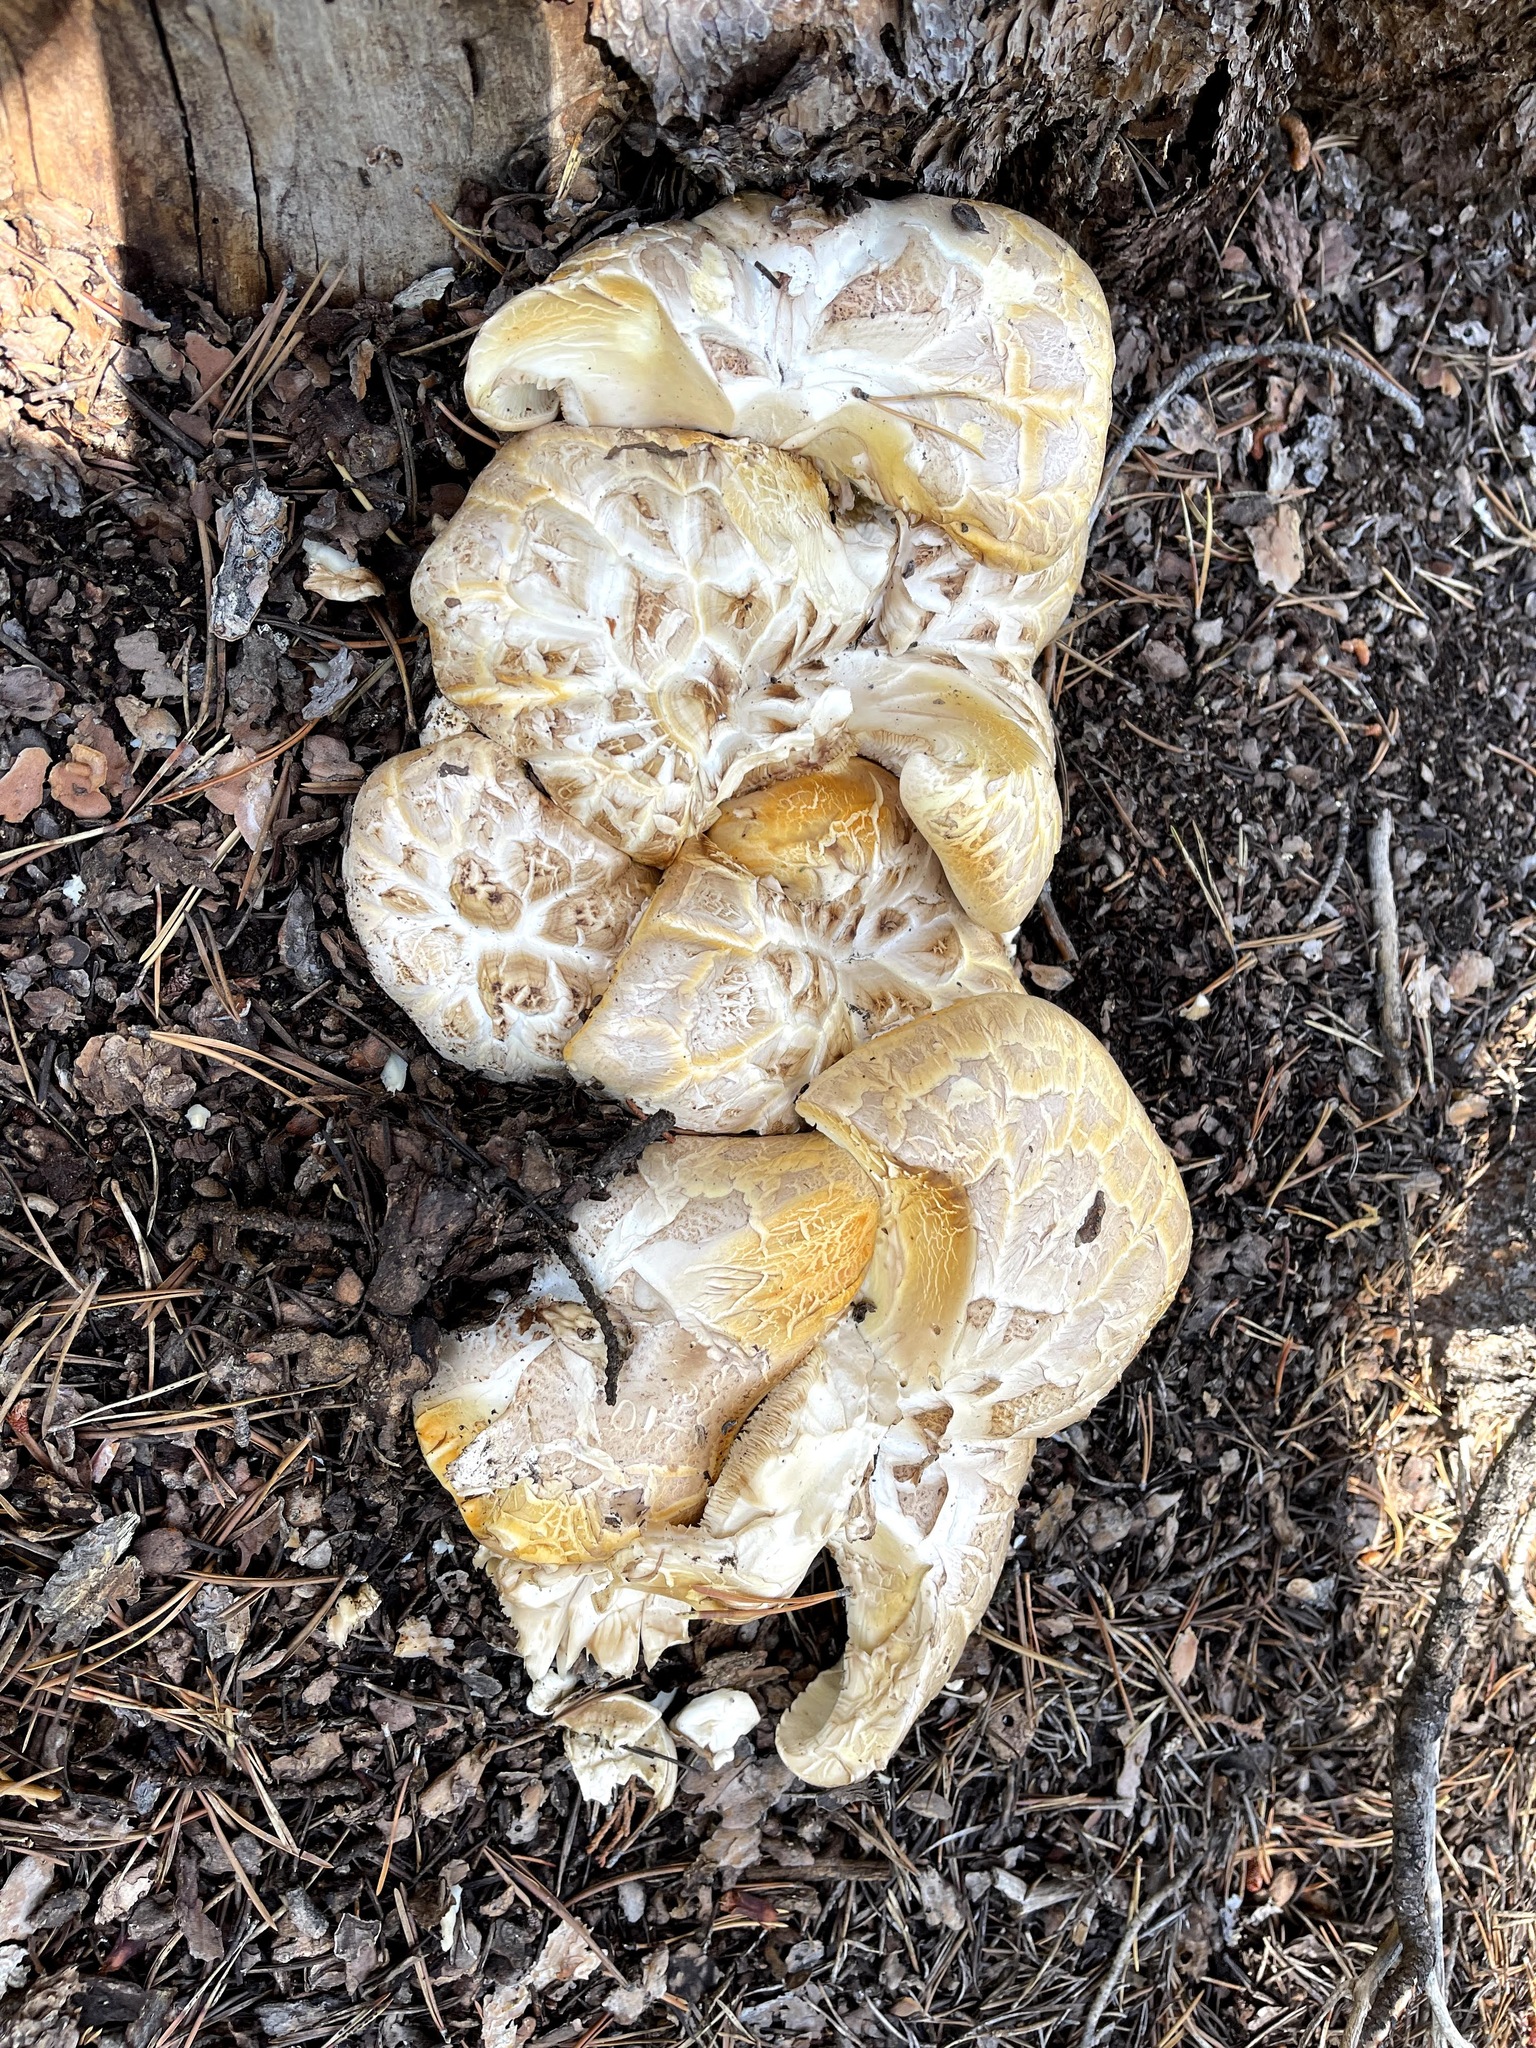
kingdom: Fungi
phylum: Basidiomycota
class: Agaricomycetes
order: Gloeophyllales
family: Gloeophyllaceae
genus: Neolentinus
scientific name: Neolentinus ponderosus
